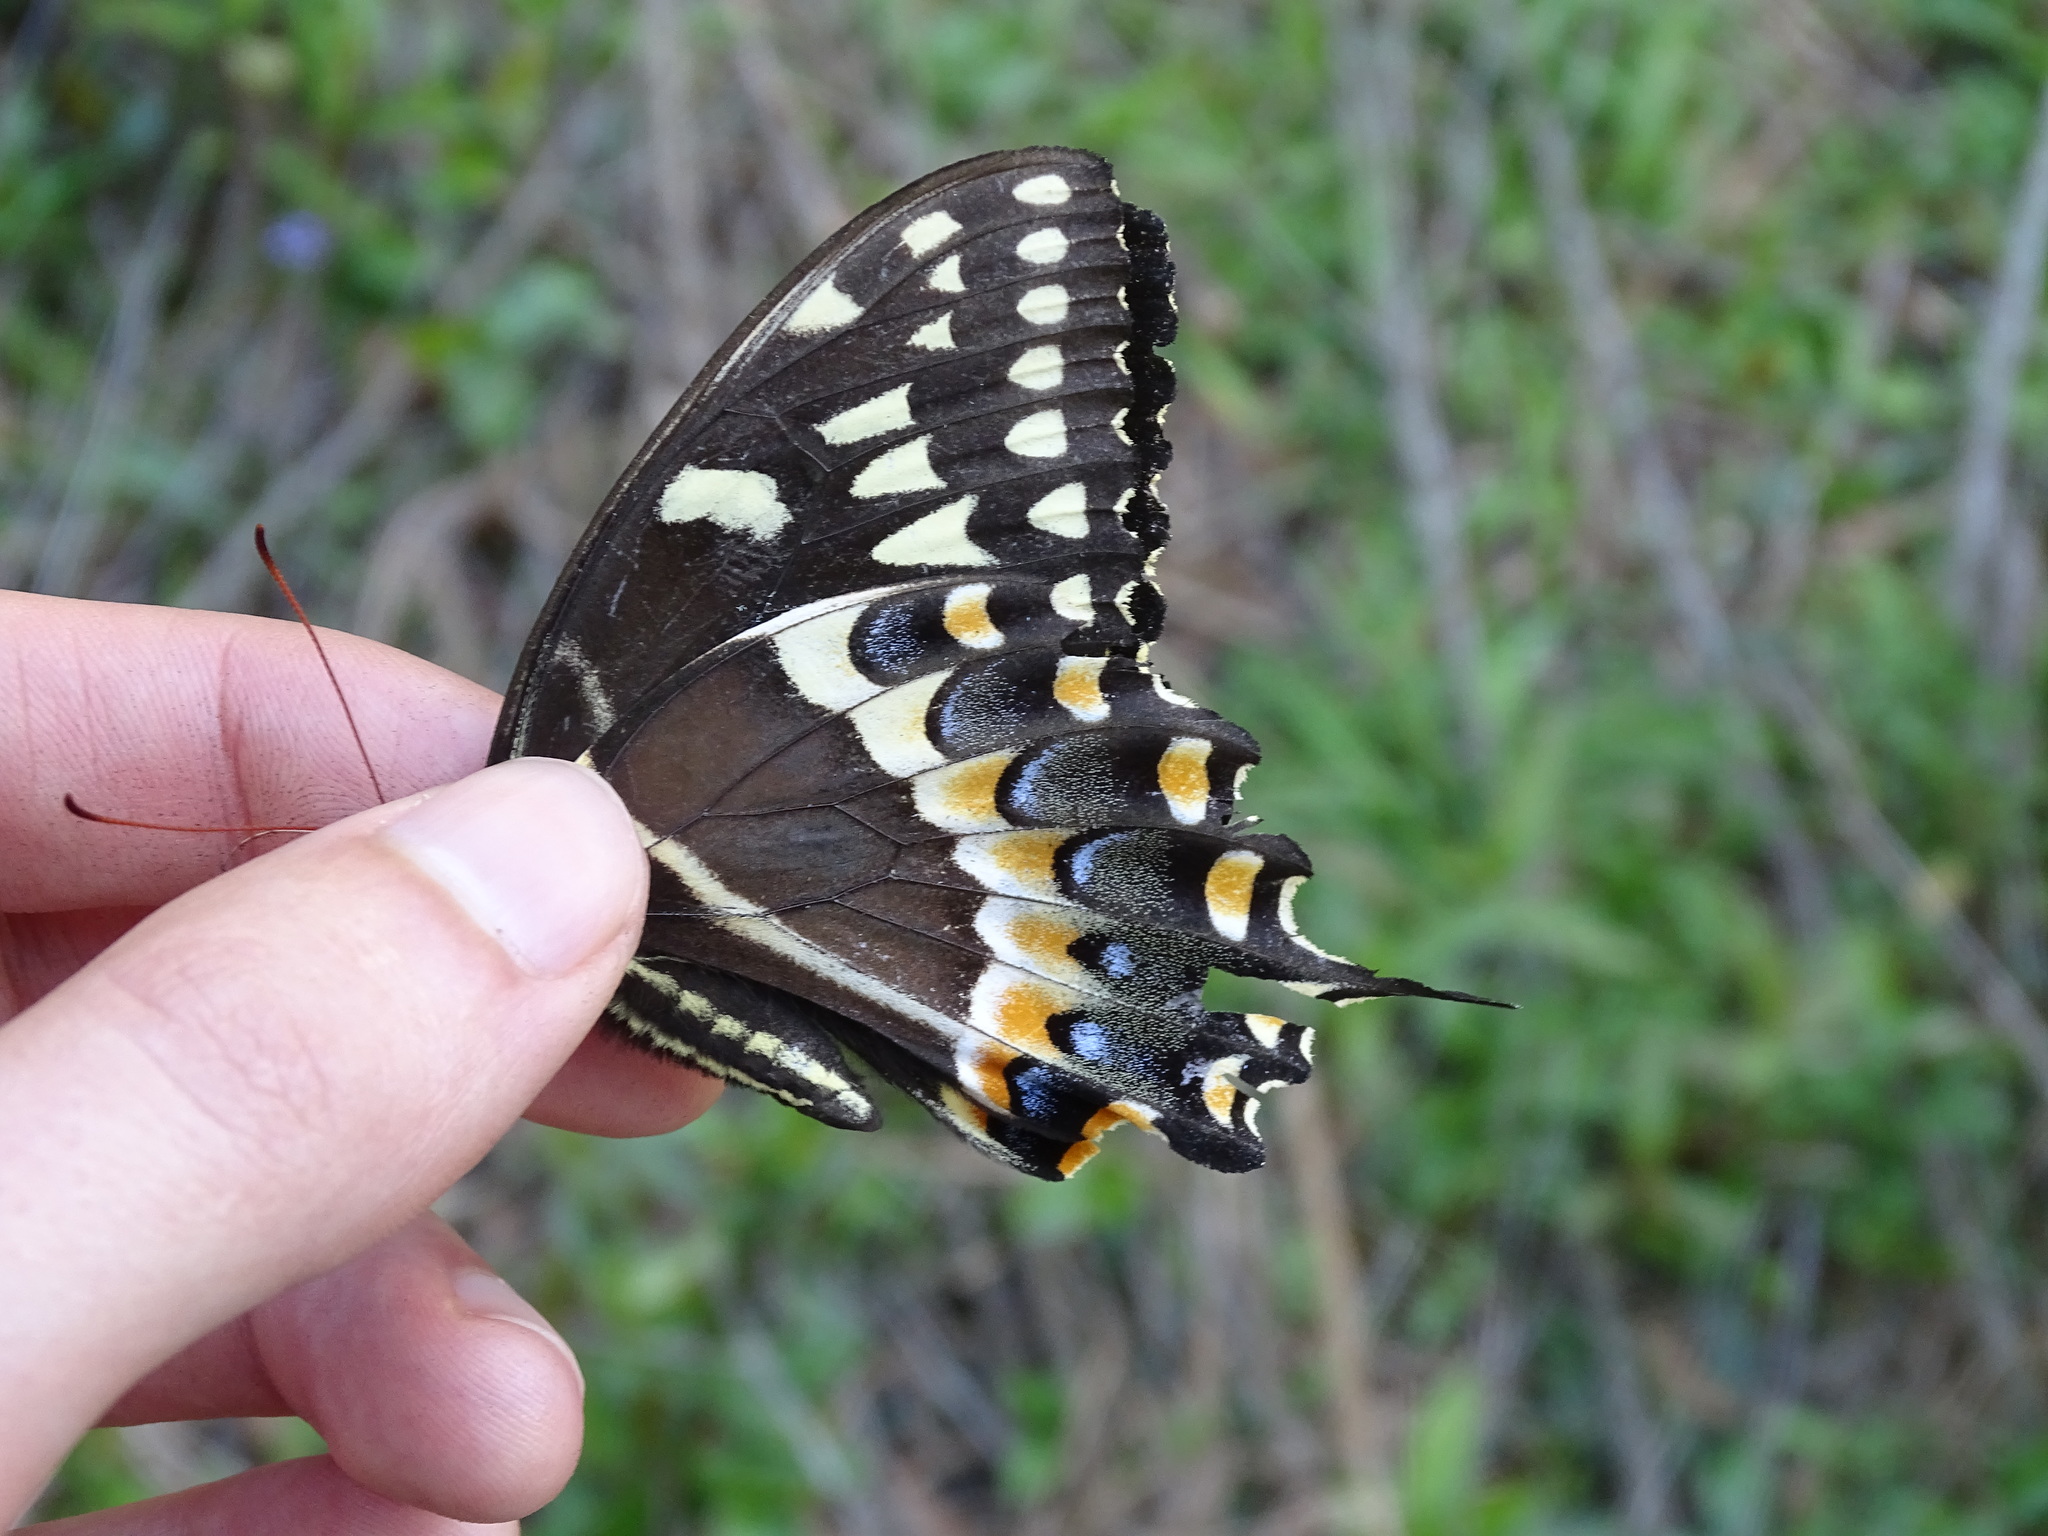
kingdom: Animalia
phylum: Arthropoda
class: Insecta
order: Lepidoptera
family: Papilionidae
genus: Papilio
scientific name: Papilio palamedes
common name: Palamedes swallowtail
